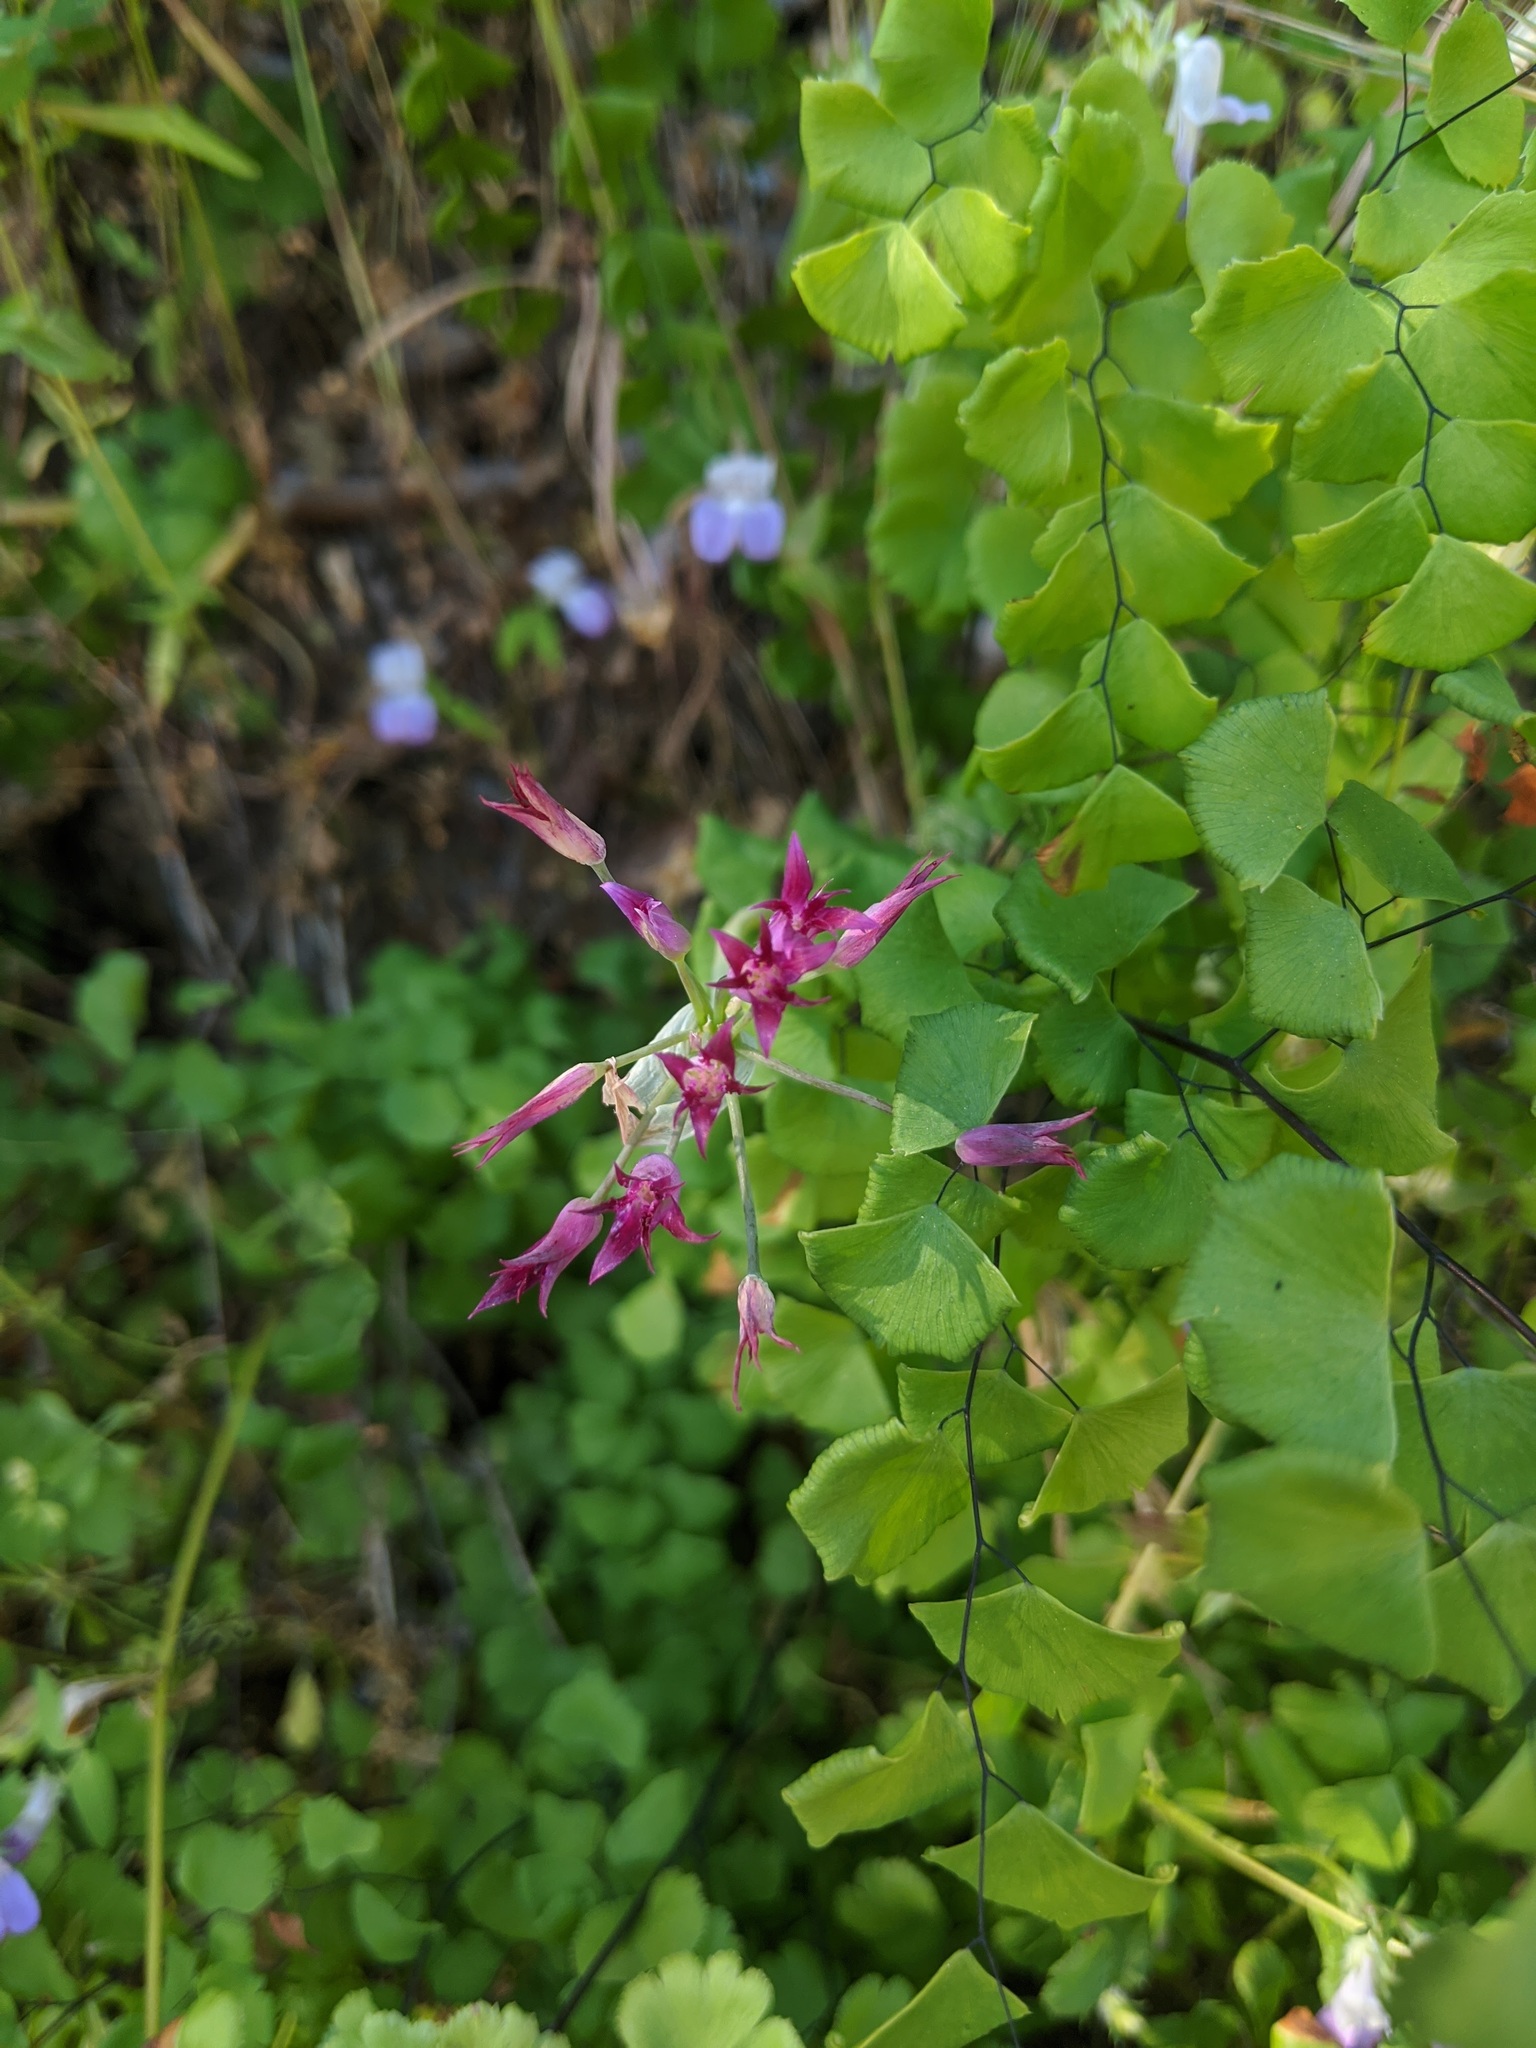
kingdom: Plantae
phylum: Tracheophyta
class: Liliopsida
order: Asparagales
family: Amaryllidaceae
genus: Allium
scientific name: Allium crispum
